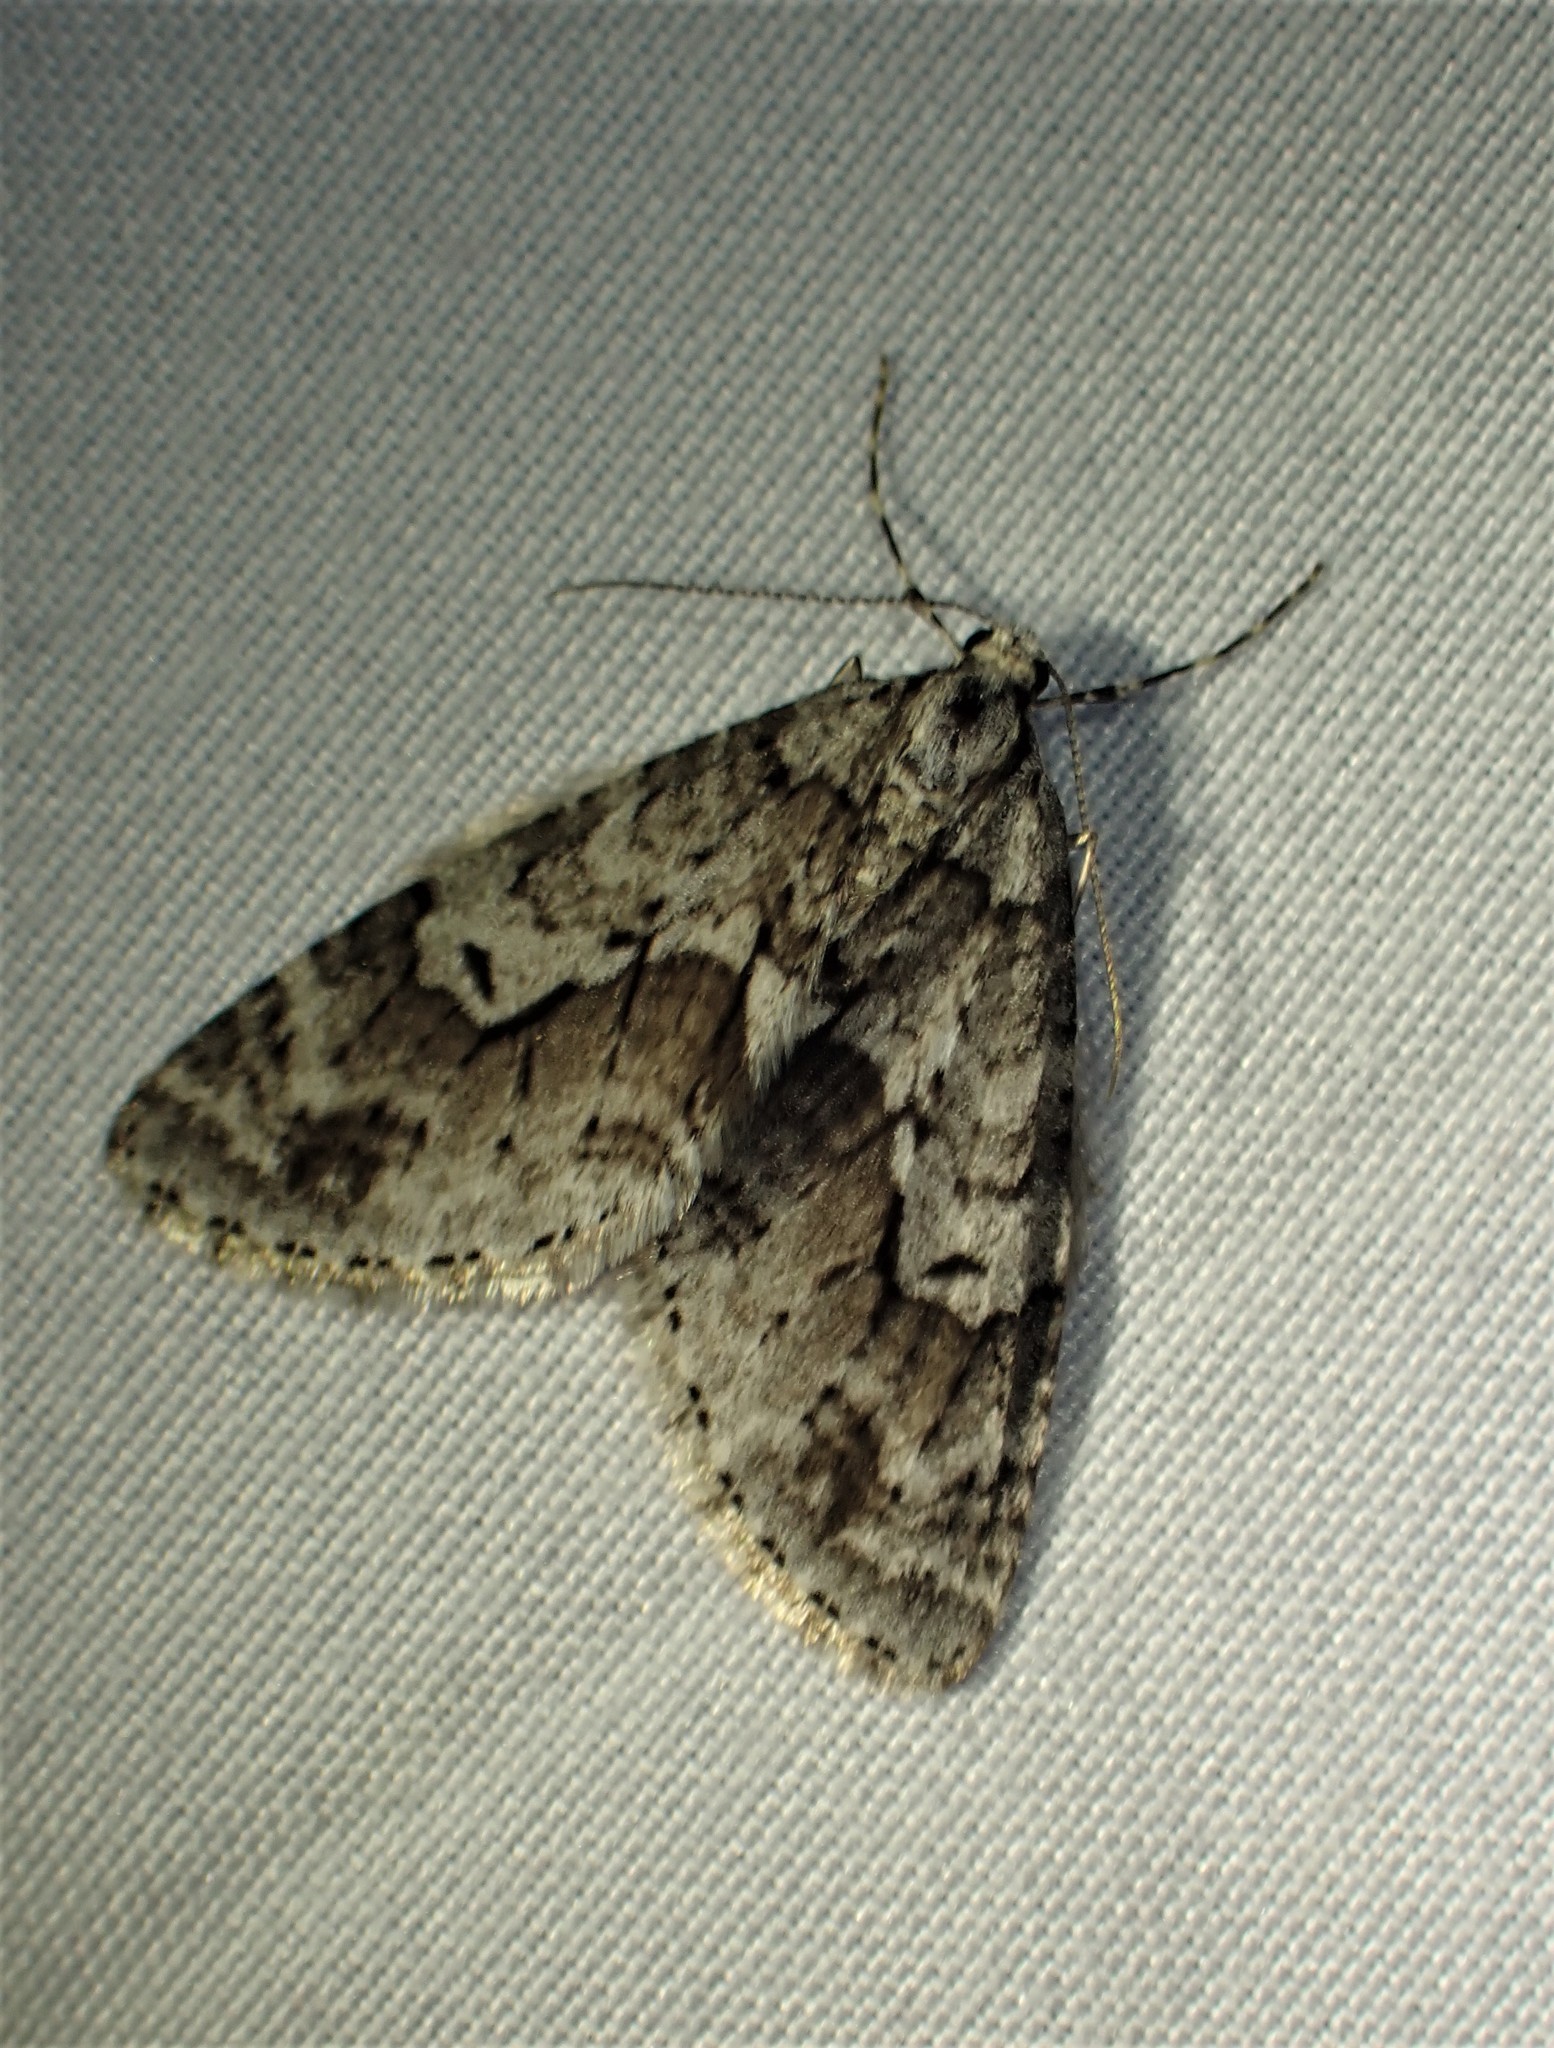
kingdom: Animalia
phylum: Arthropoda
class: Insecta
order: Lepidoptera
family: Geometridae
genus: Cladara
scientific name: Cladara limitaria
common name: Mottled gray carpet
